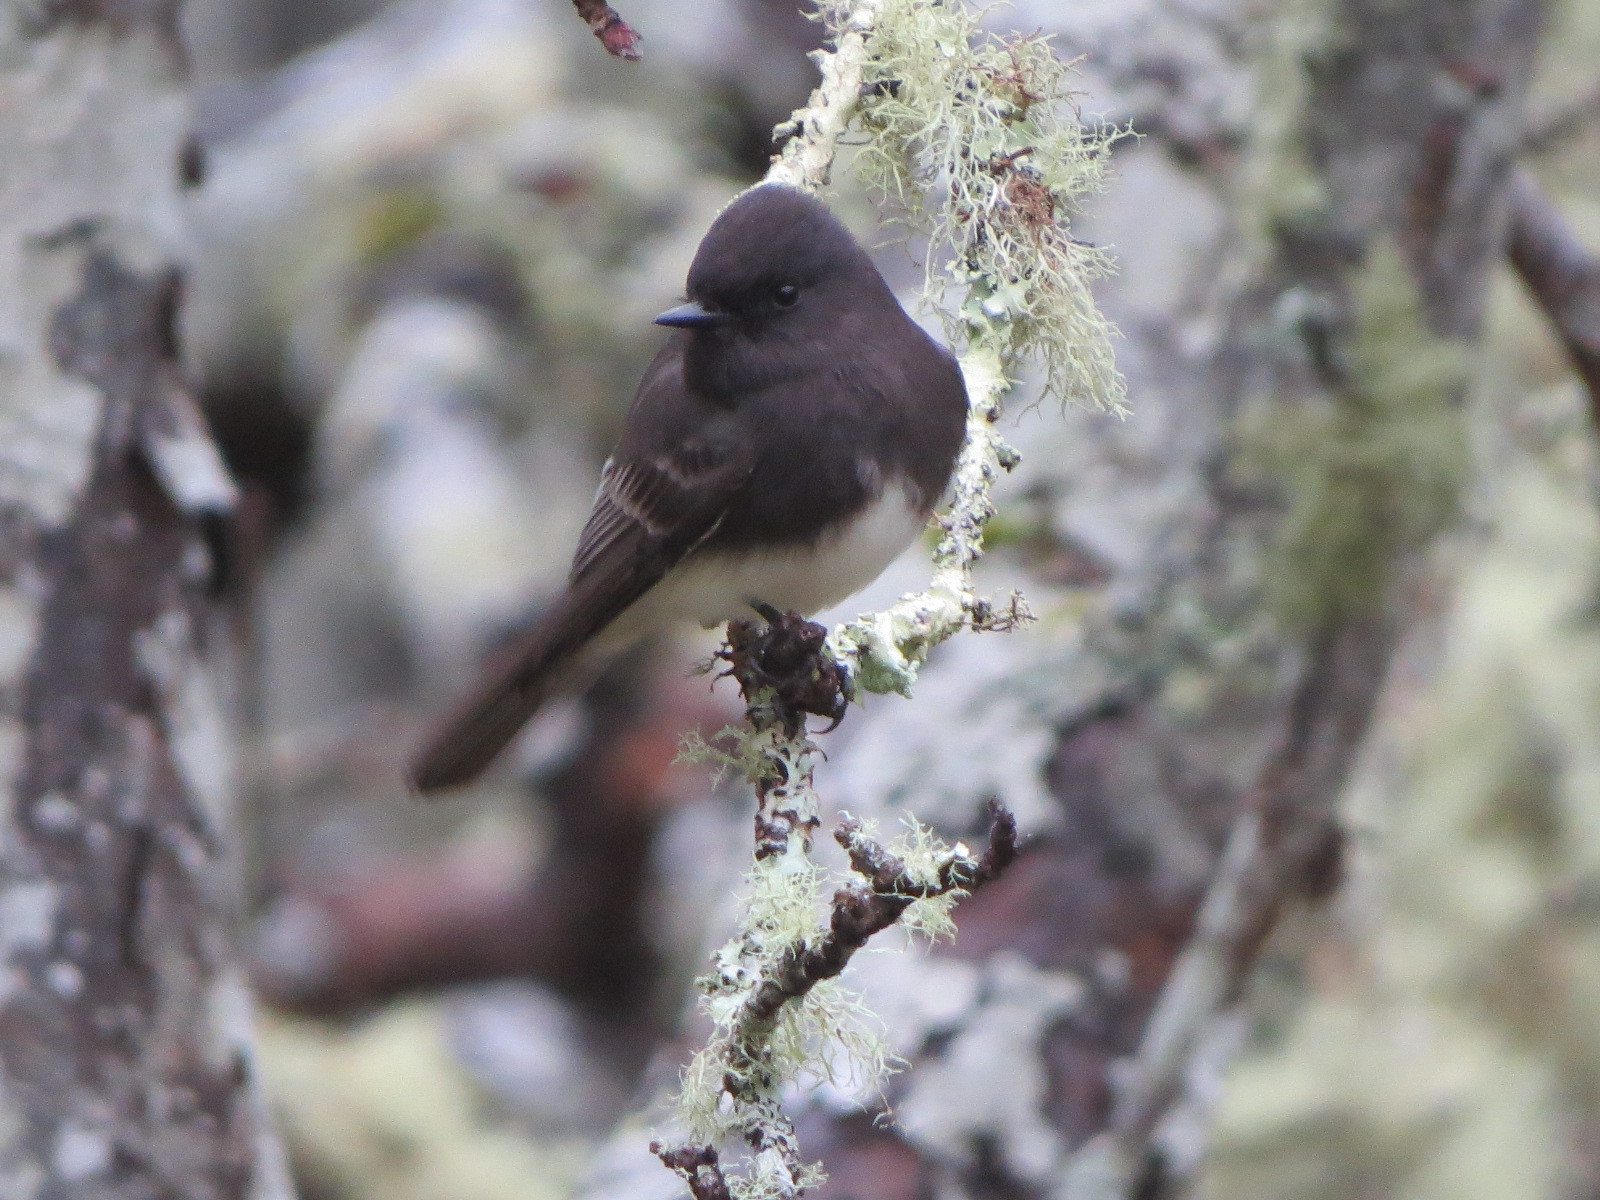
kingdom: Animalia
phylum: Chordata
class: Aves
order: Passeriformes
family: Tyrannidae
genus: Sayornis
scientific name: Sayornis nigricans
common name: Black phoebe
